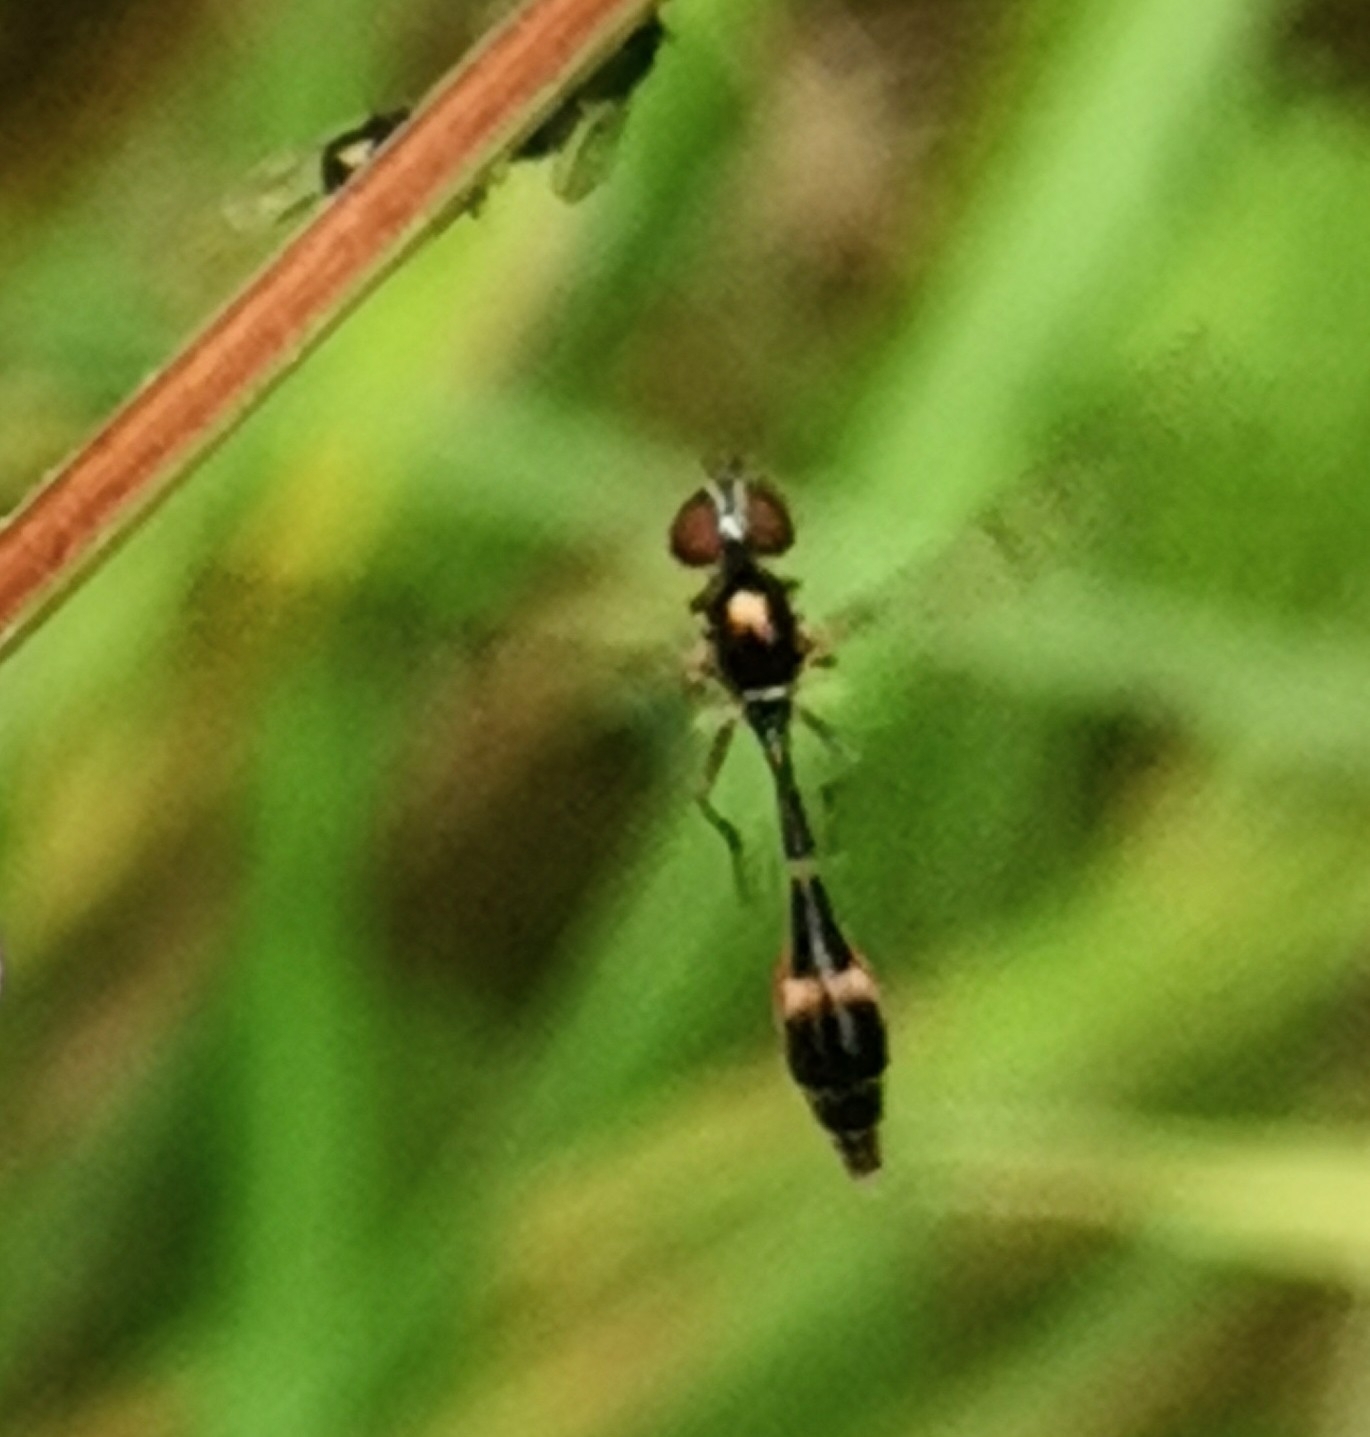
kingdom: Animalia
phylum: Arthropoda
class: Insecta
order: Diptera
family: Syrphidae
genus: Baccha
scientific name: Baccha elongata
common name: Common dainty
